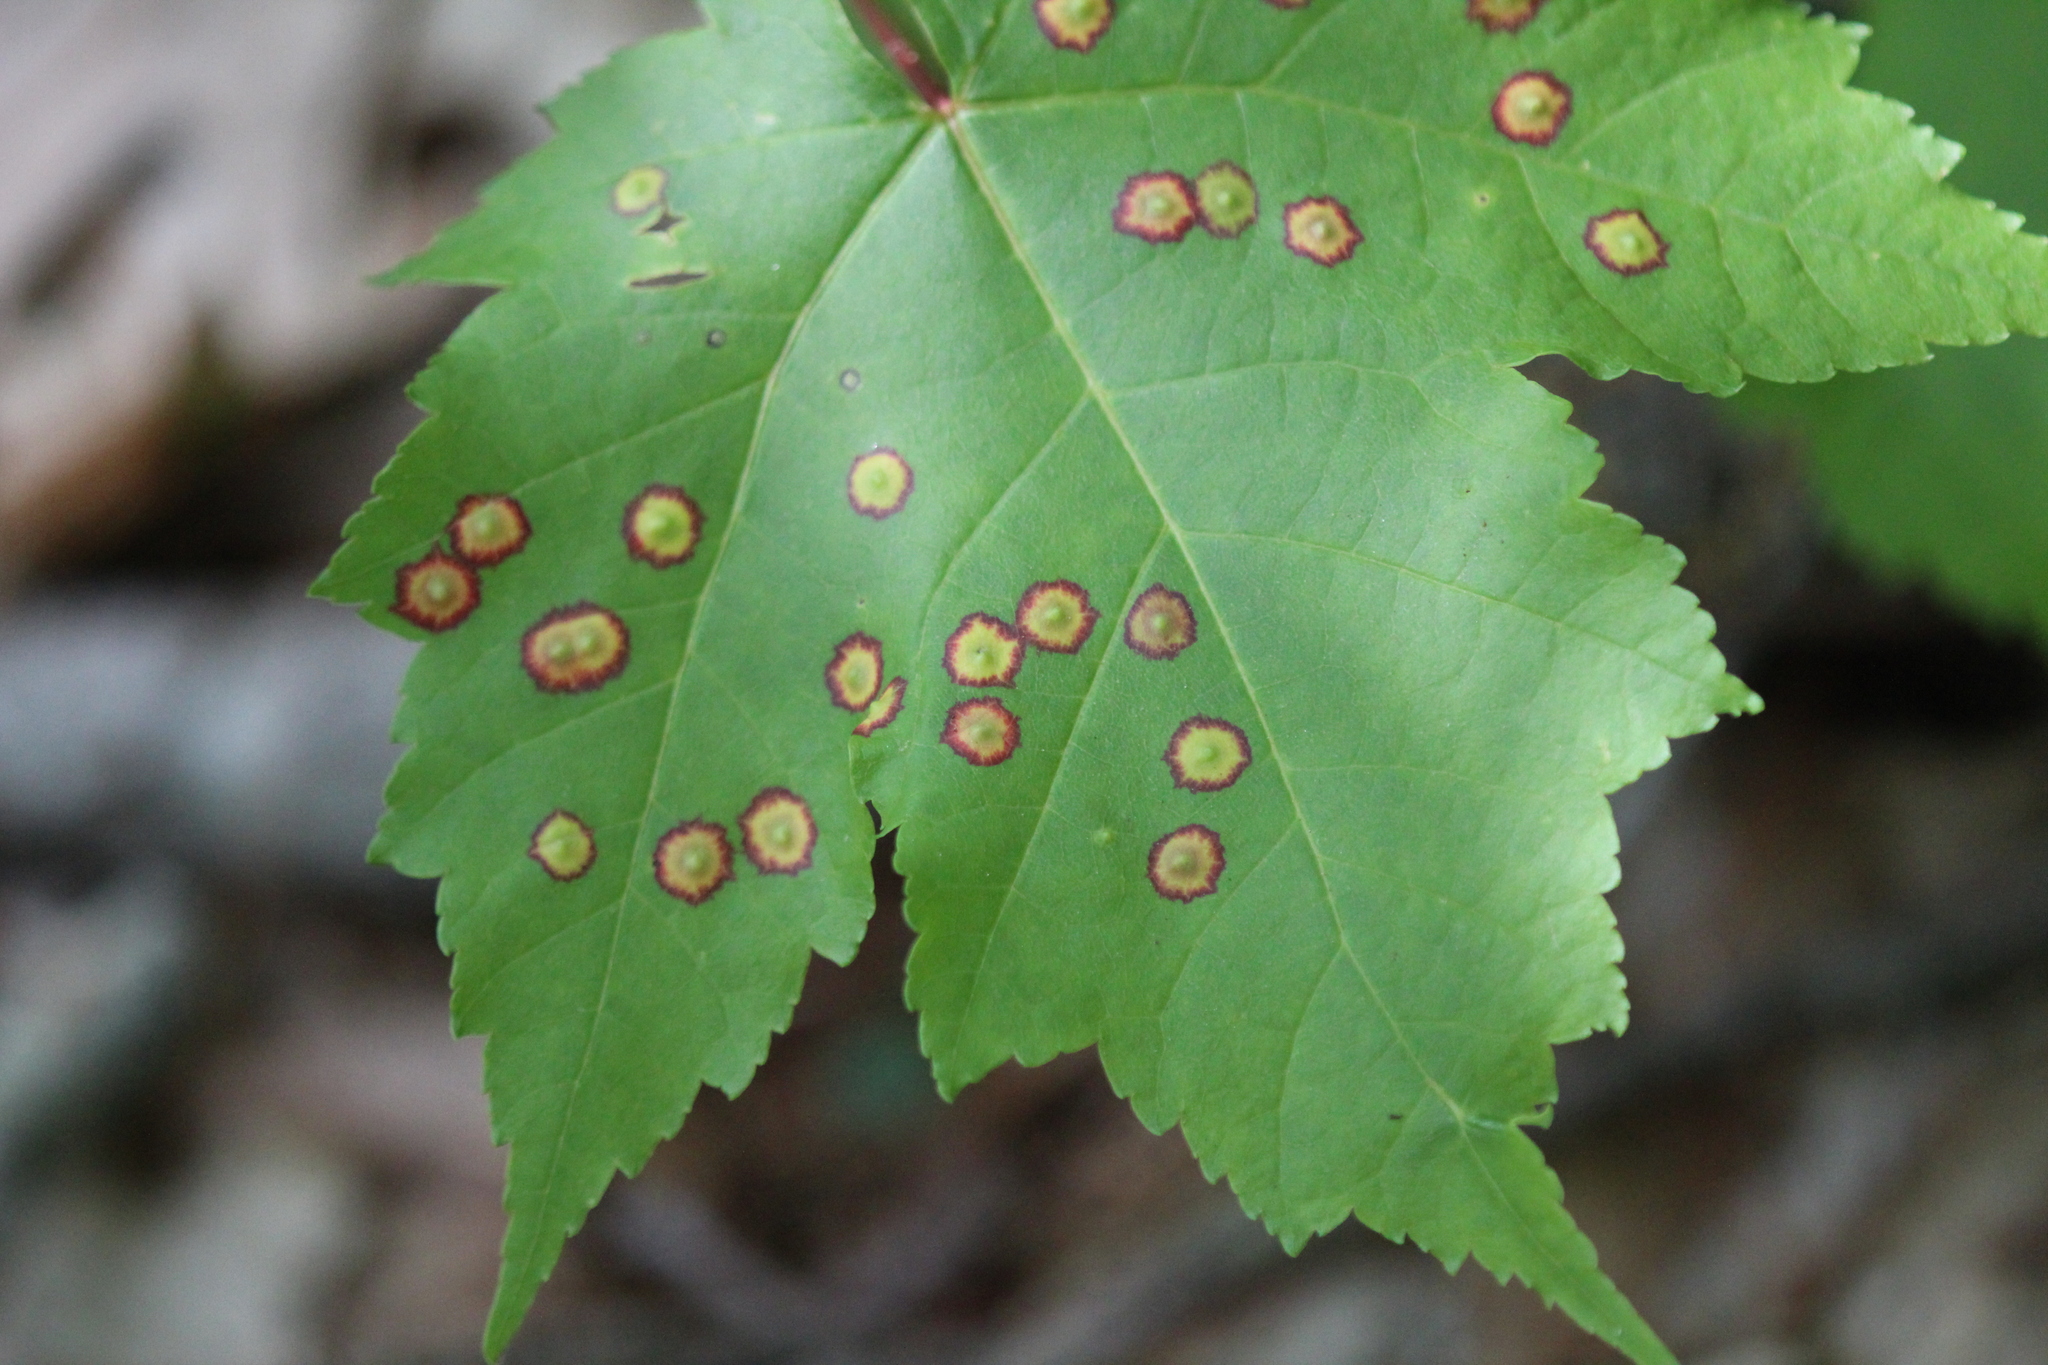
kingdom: Plantae
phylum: Tracheophyta
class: Magnoliopsida
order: Sapindales
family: Sapindaceae
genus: Acer
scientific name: Acer rubrum
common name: Red maple
